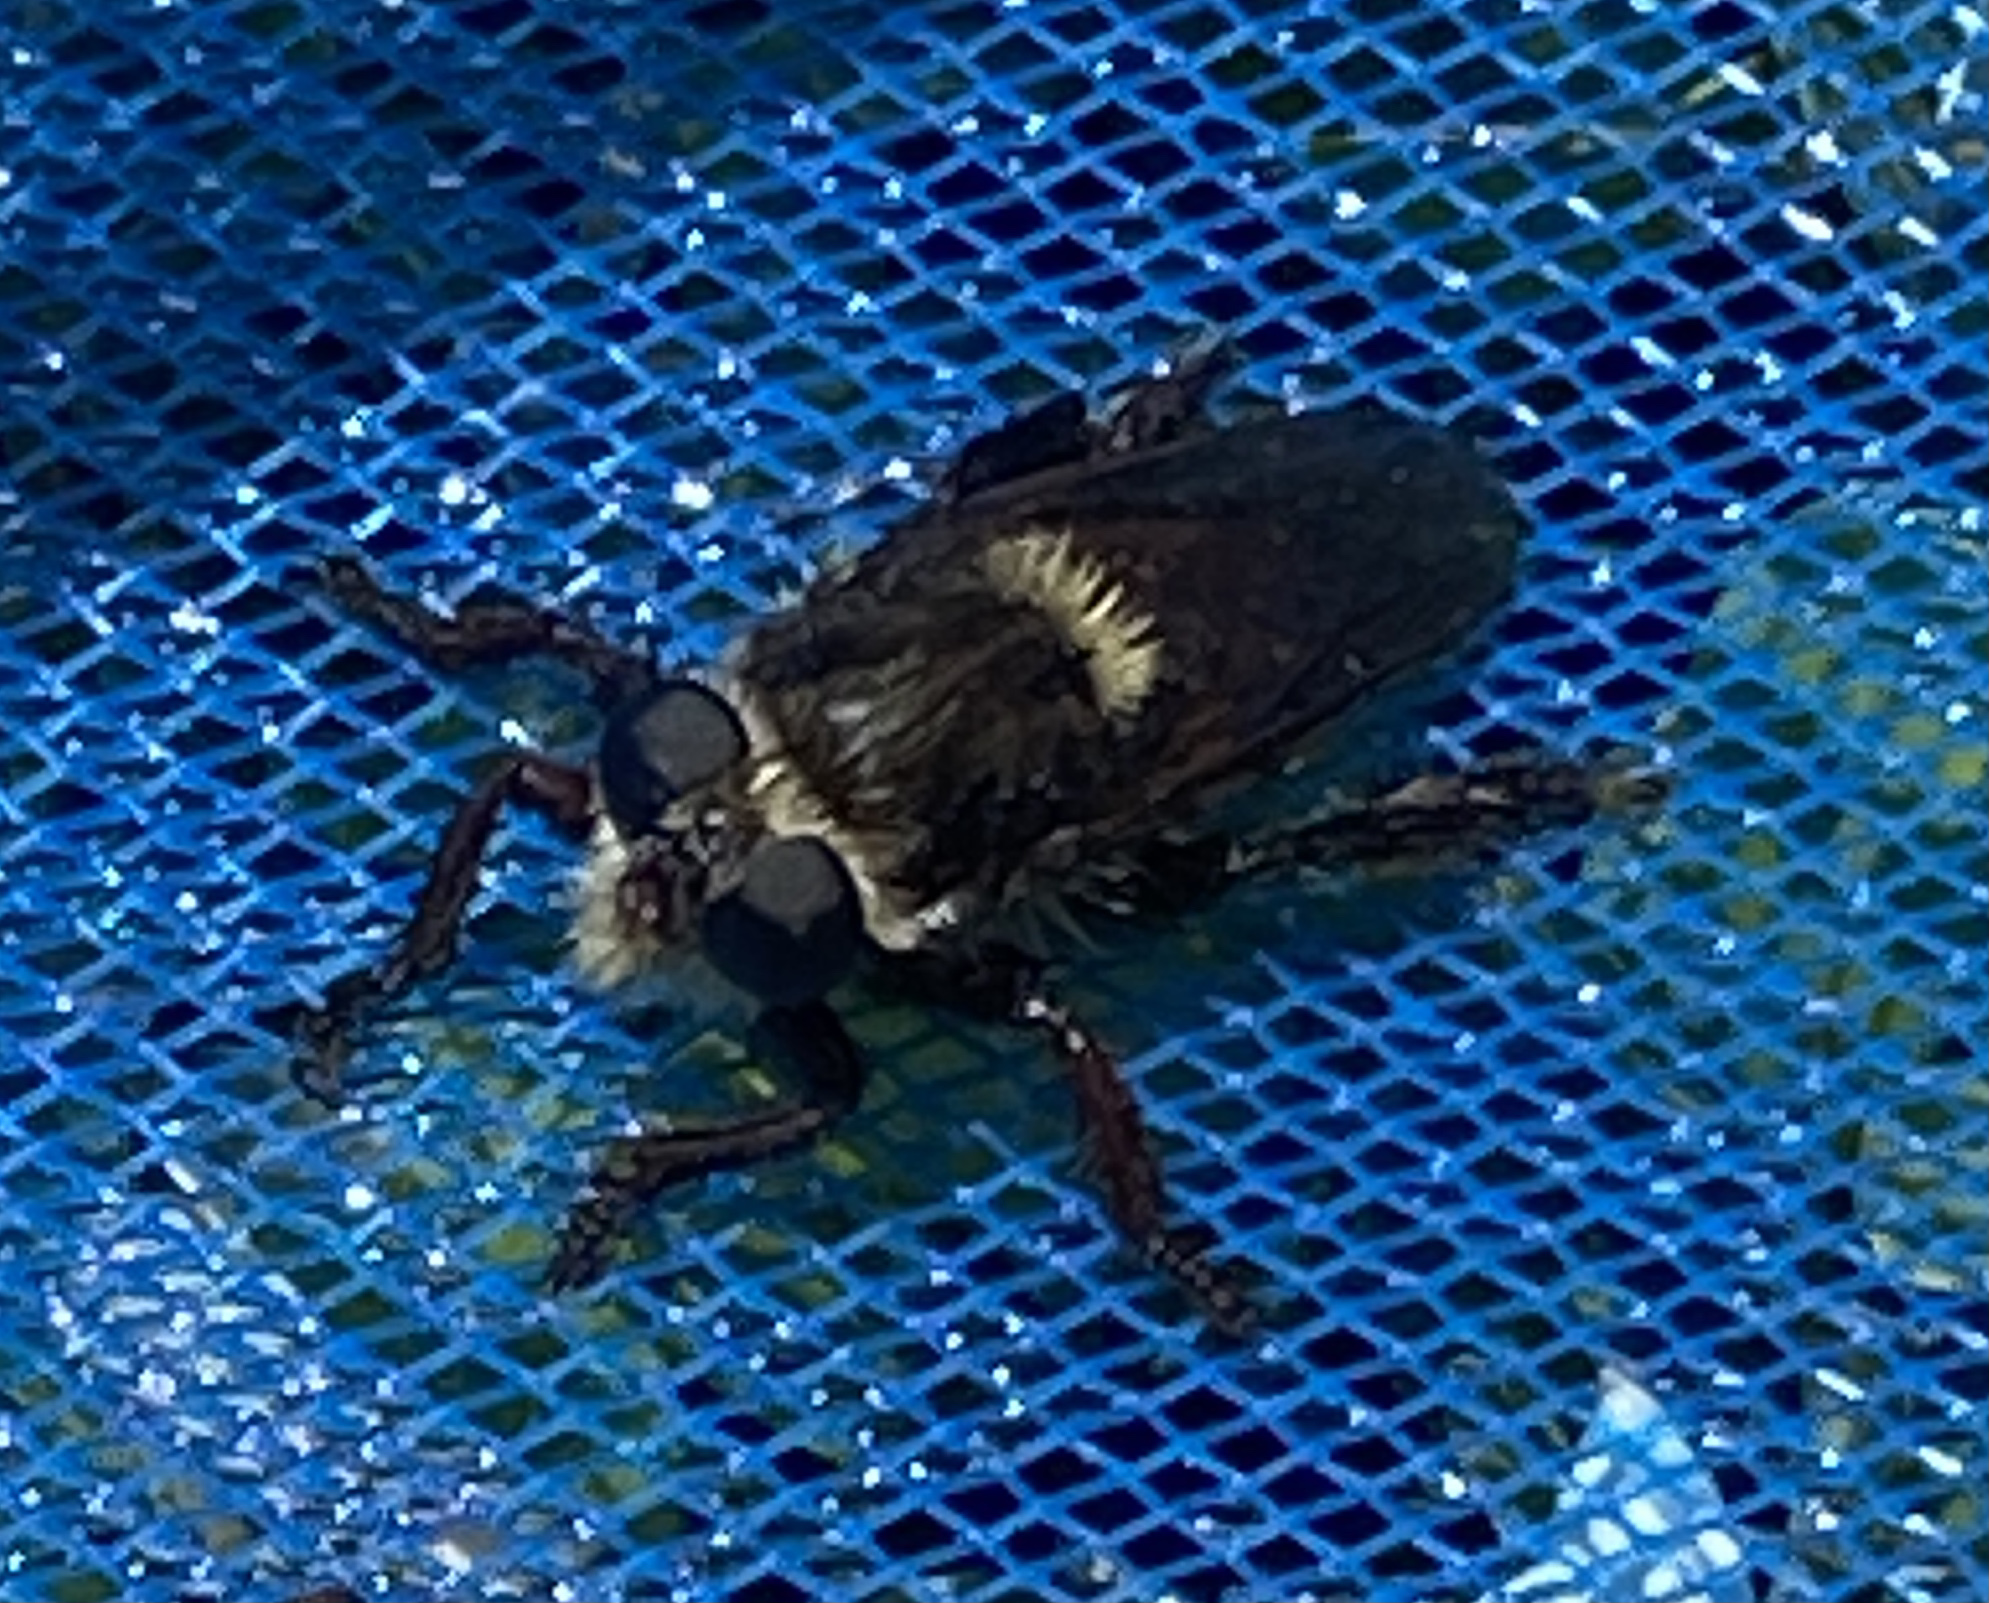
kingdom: Animalia
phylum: Arthropoda
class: Insecta
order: Diptera
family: Asilidae
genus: Mallophora
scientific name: Mallophora fautrix
